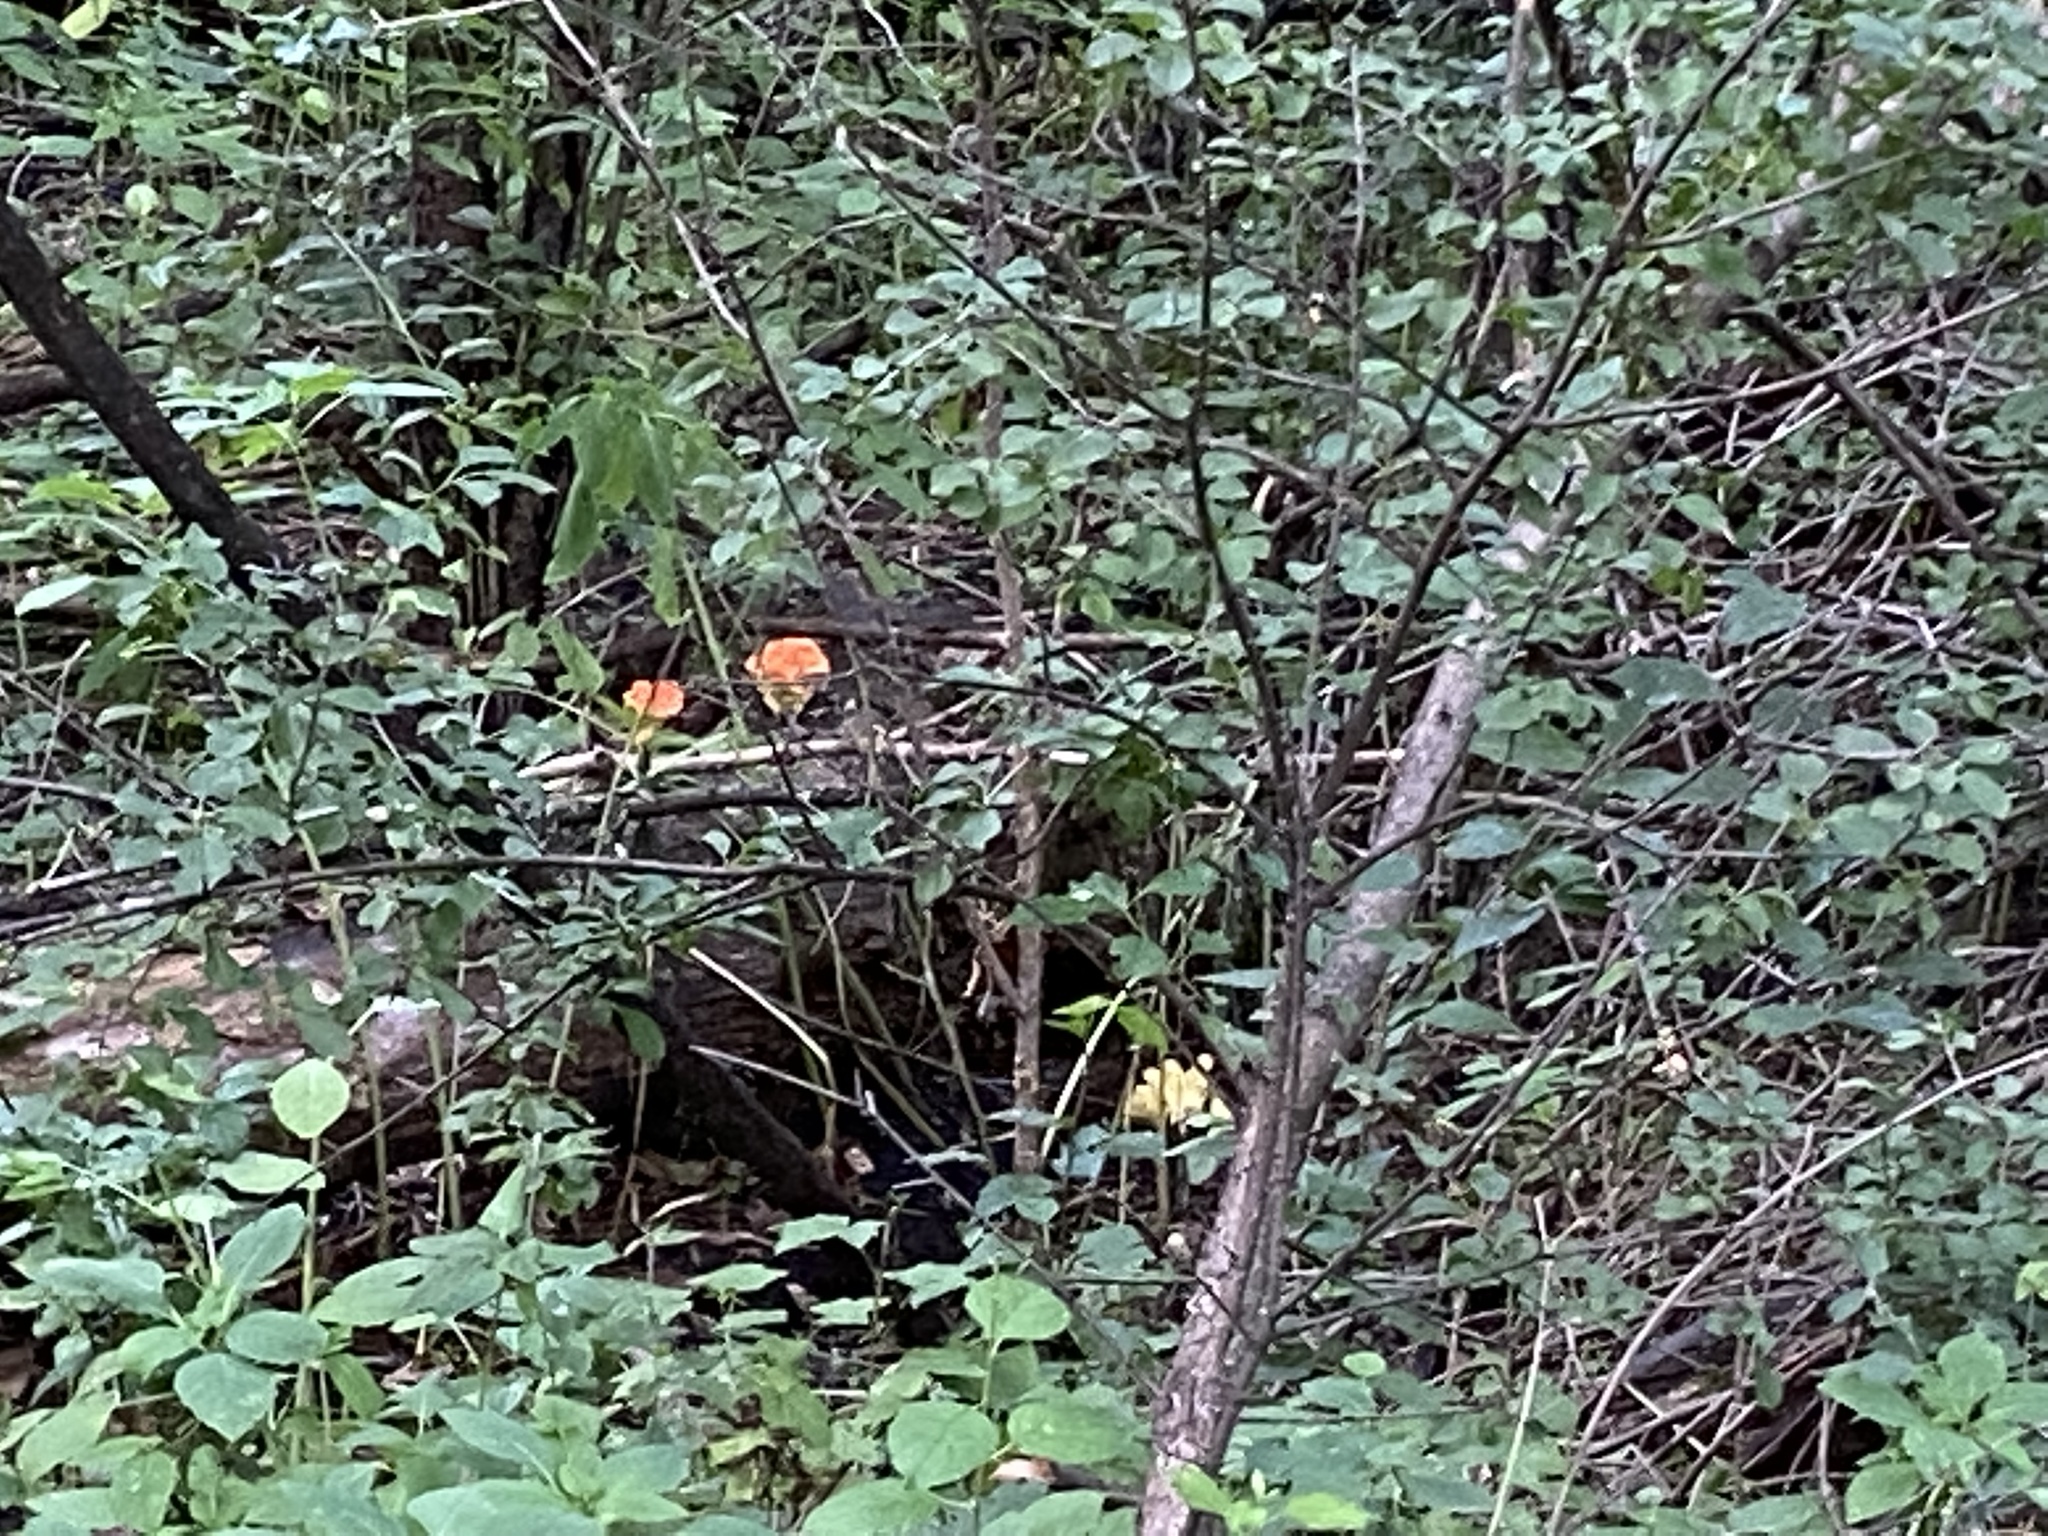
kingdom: Fungi
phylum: Basidiomycota
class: Agaricomycetes
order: Polyporales
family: Laetiporaceae
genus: Laetiporus
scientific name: Laetiporus sulphureus
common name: Chicken of the woods
